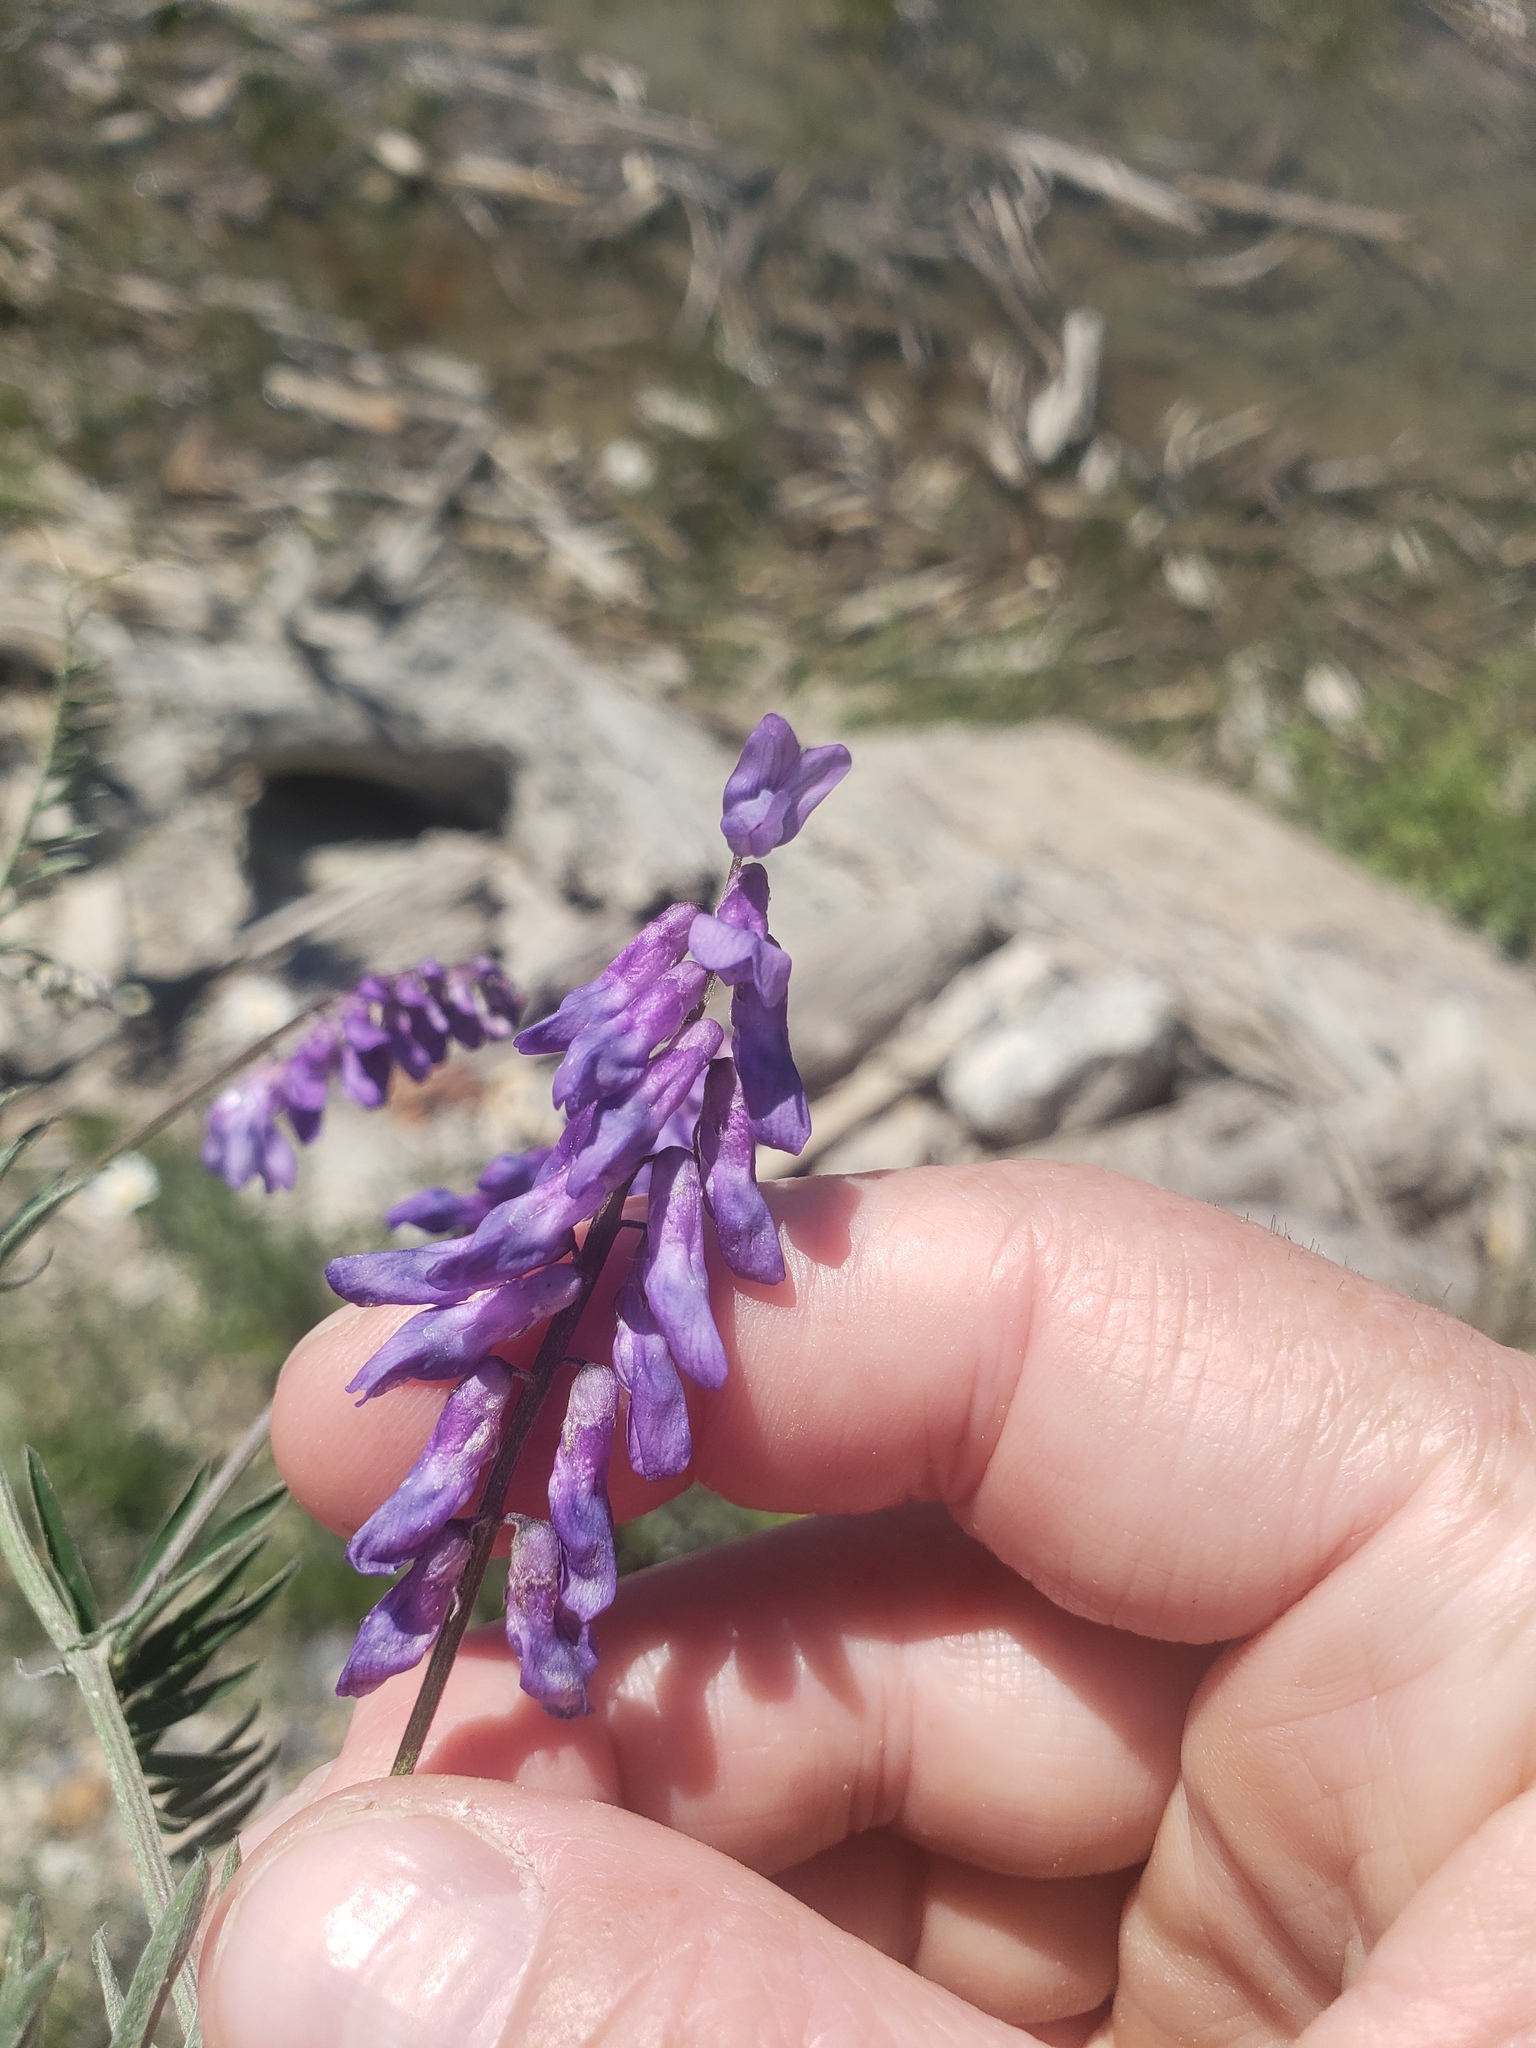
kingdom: Plantae
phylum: Tracheophyta
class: Magnoliopsida
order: Fabales
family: Fabaceae
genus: Vicia
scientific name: Vicia cracca
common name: Bird vetch
